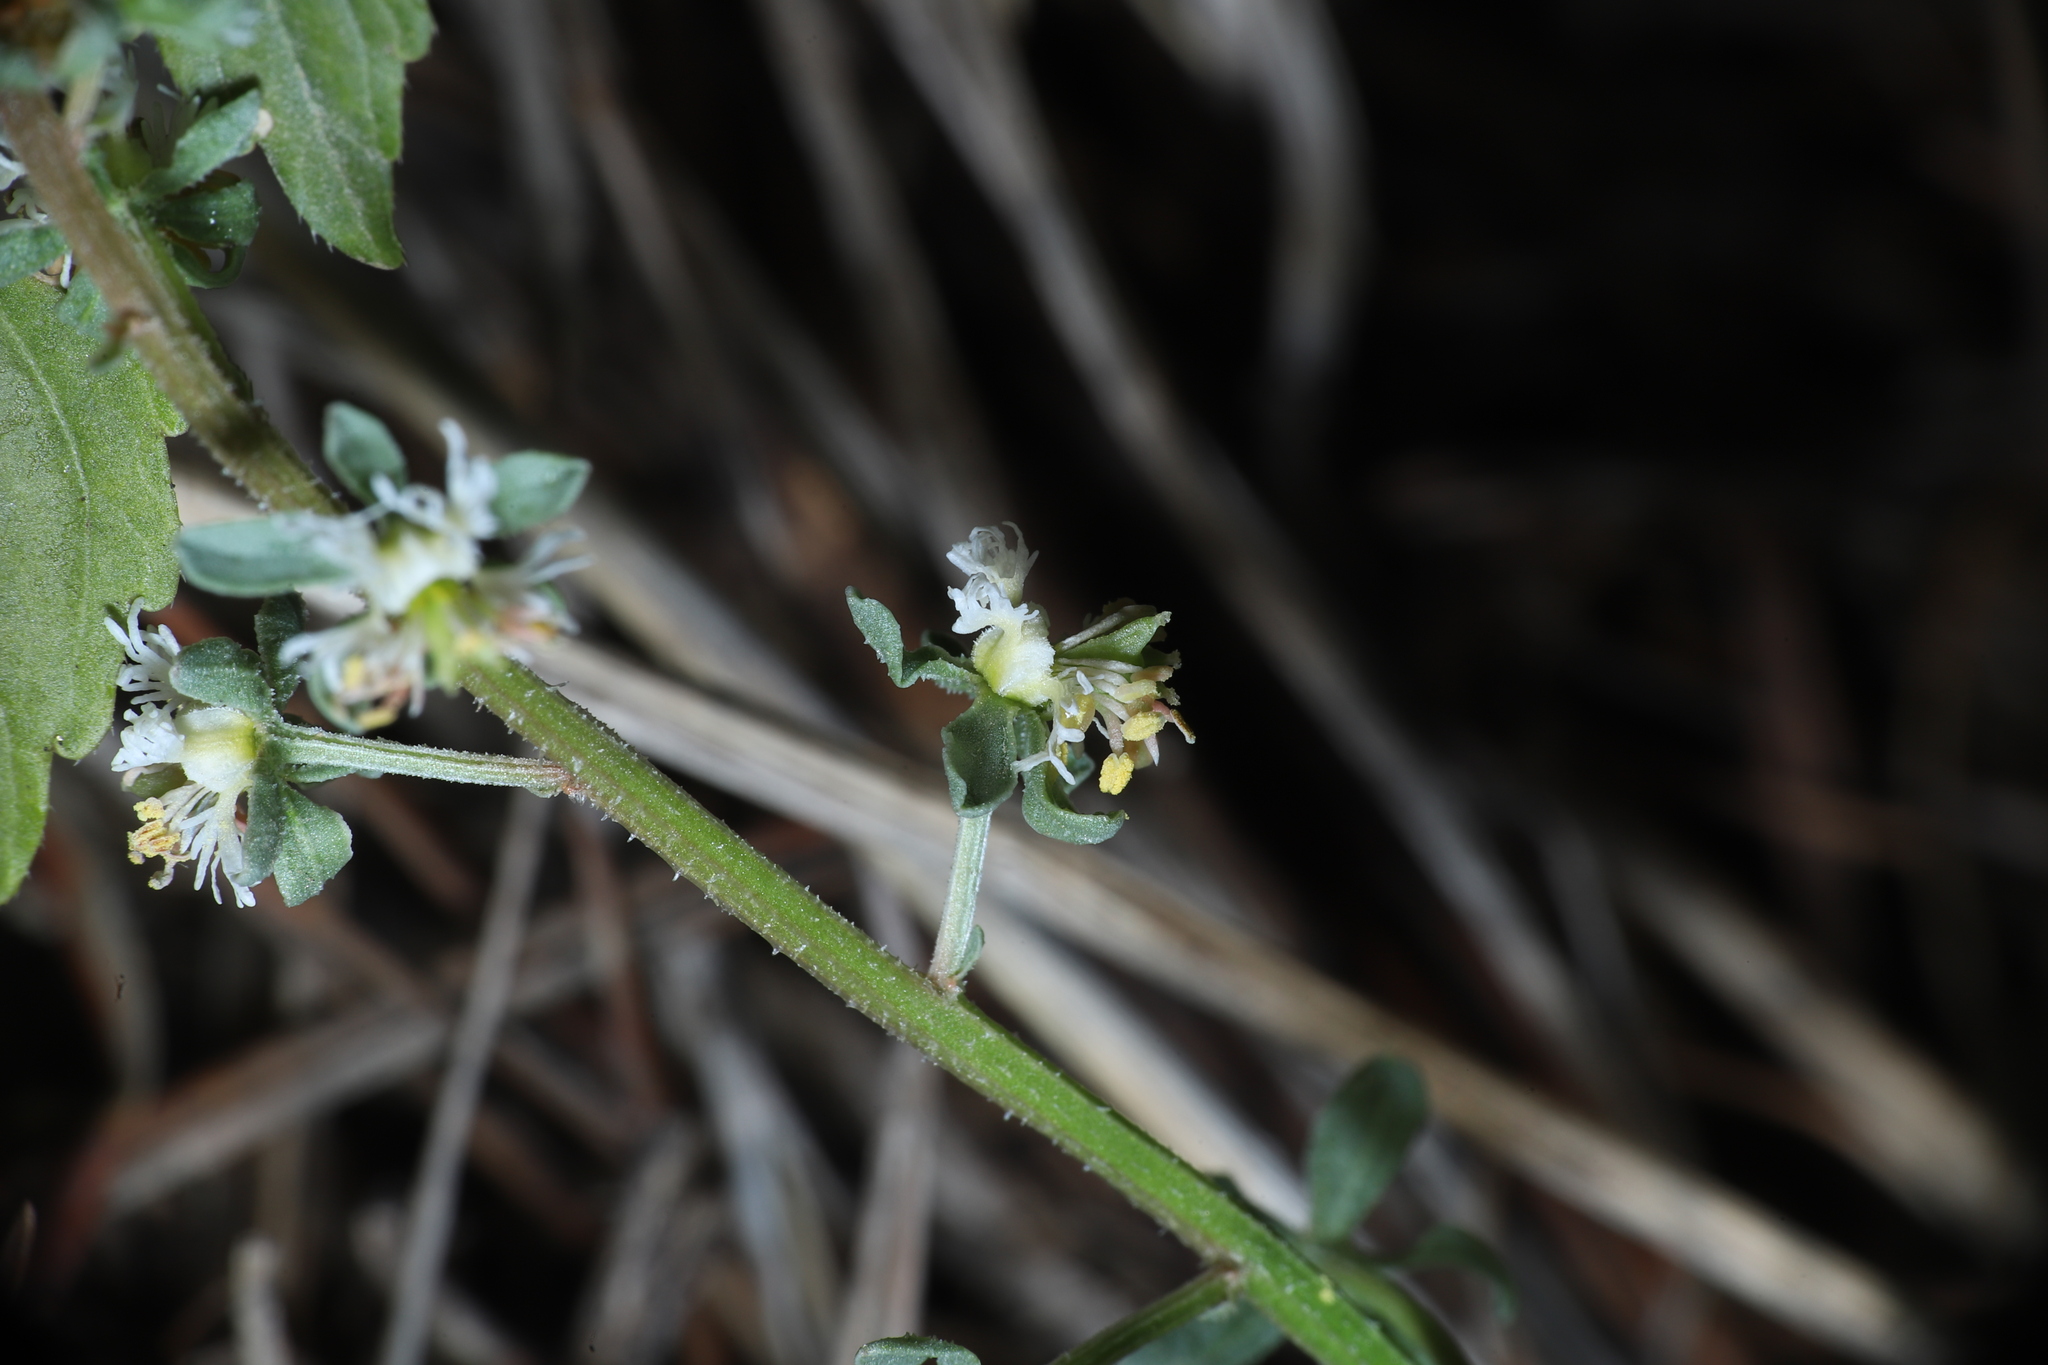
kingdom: Plantae
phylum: Tracheophyta
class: Magnoliopsida
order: Brassicales
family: Resedaceae
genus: Reseda
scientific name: Reseda phyteuma
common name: Corn mignonette
